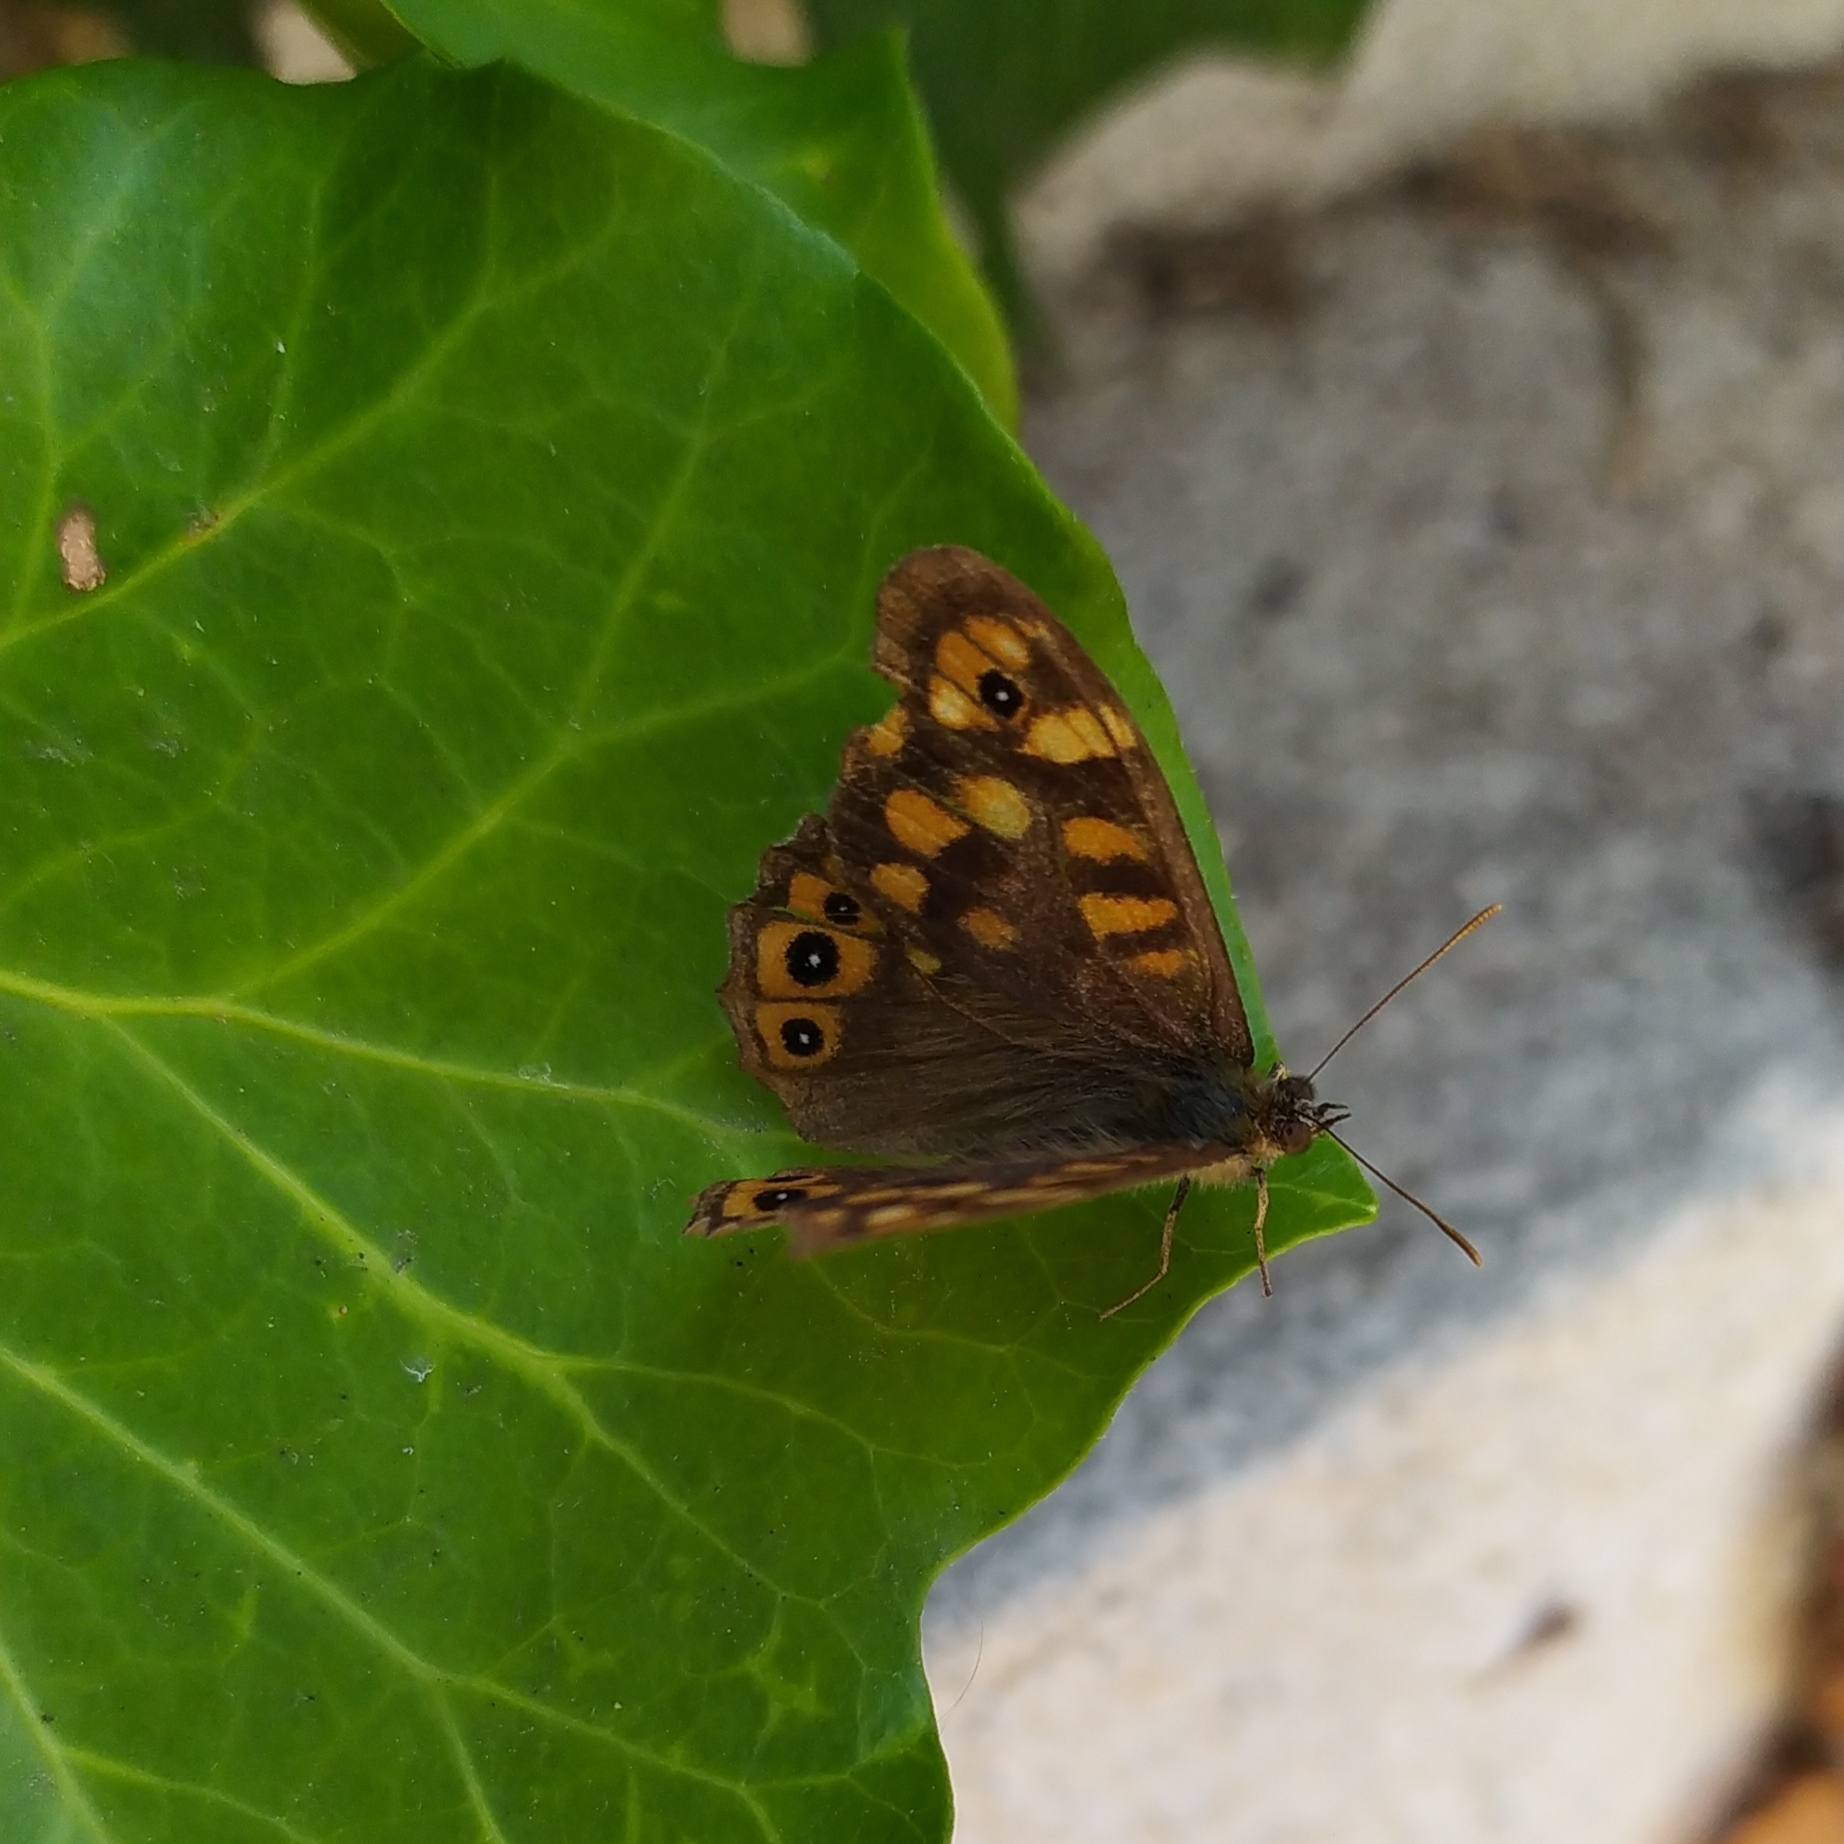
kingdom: Animalia
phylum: Arthropoda
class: Insecta
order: Lepidoptera
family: Nymphalidae
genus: Pararge
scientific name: Pararge aegeria
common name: Speckled wood
